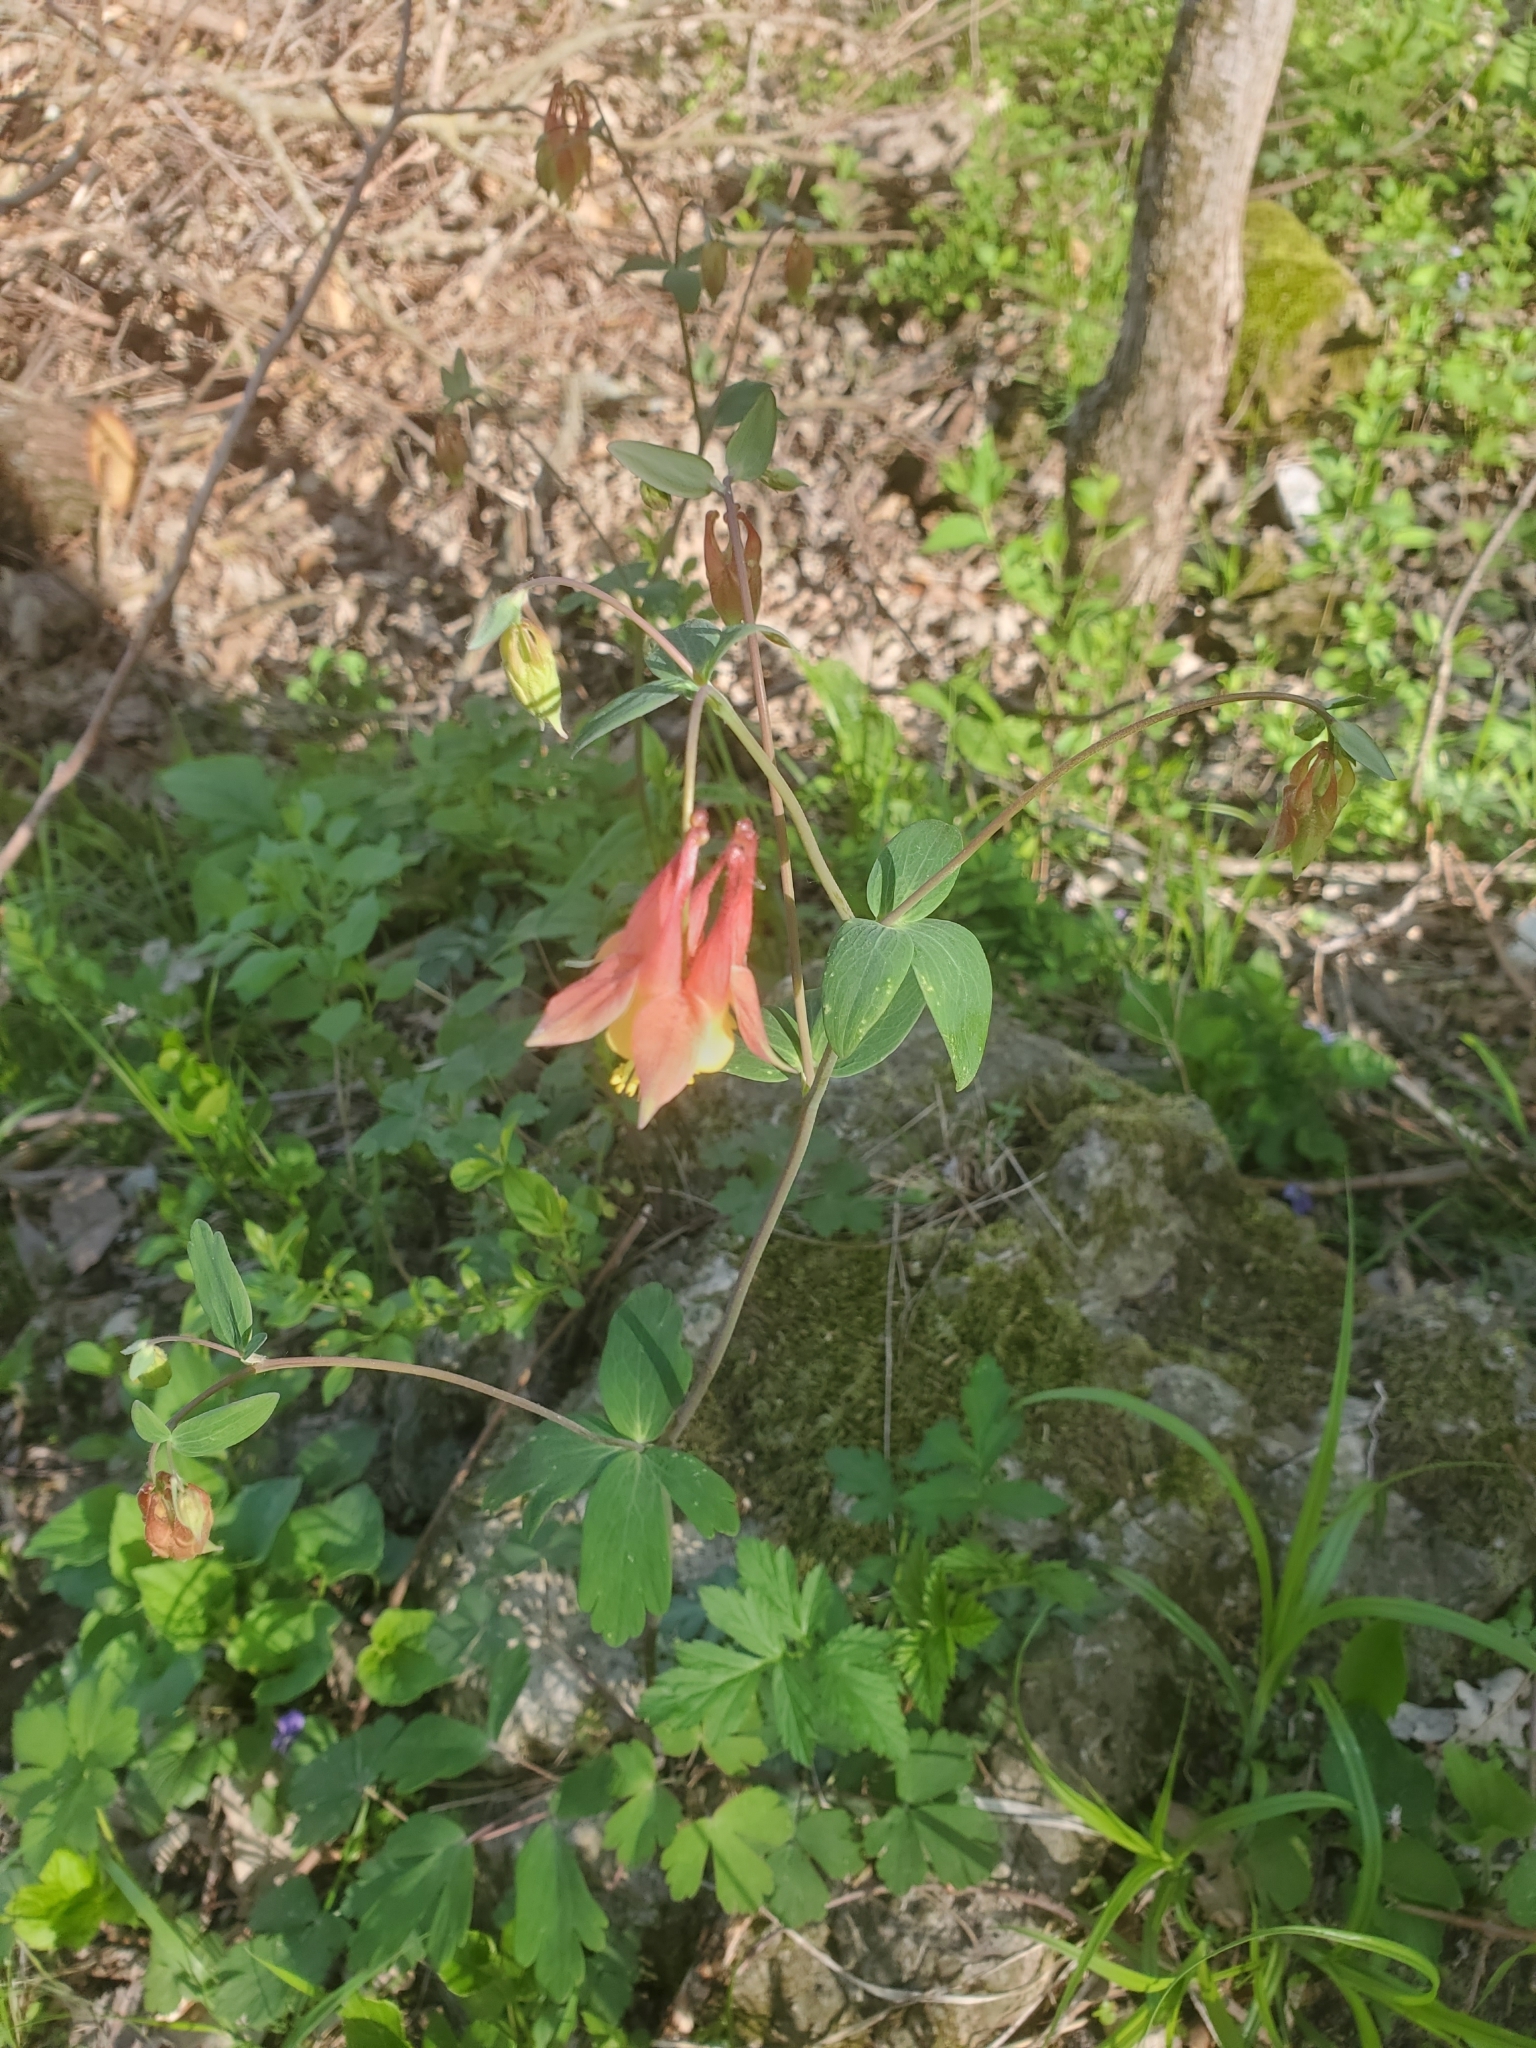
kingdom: Plantae
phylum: Tracheophyta
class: Magnoliopsida
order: Ranunculales
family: Ranunculaceae
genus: Aquilegia
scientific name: Aquilegia canadensis
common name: American columbine
